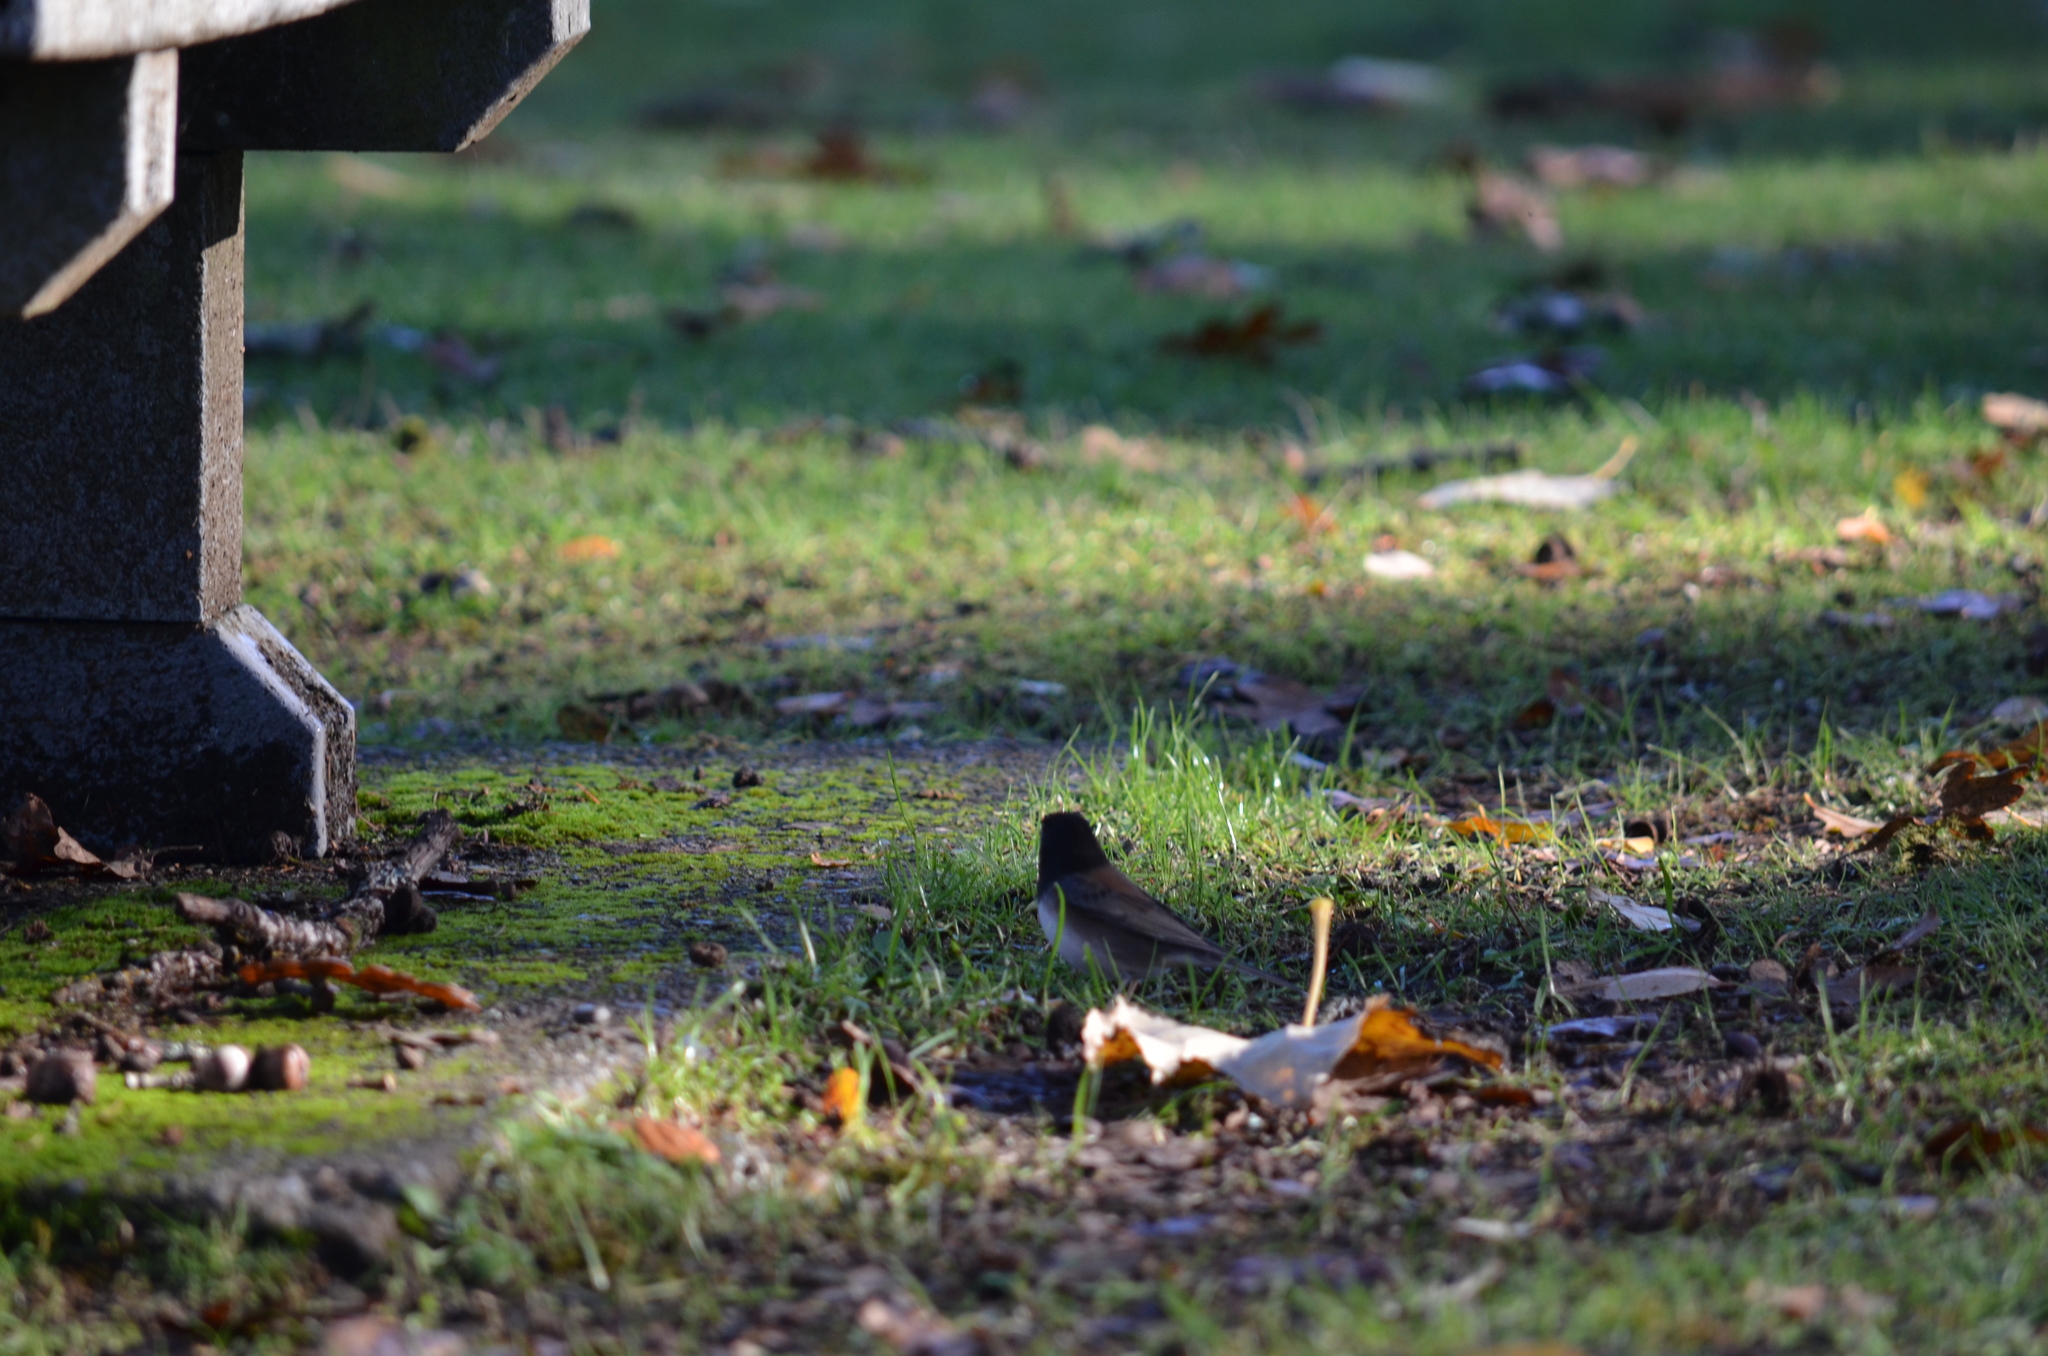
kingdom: Animalia
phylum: Chordata
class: Aves
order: Passeriformes
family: Passerellidae
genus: Junco
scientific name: Junco hyemalis
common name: Dark-eyed junco
